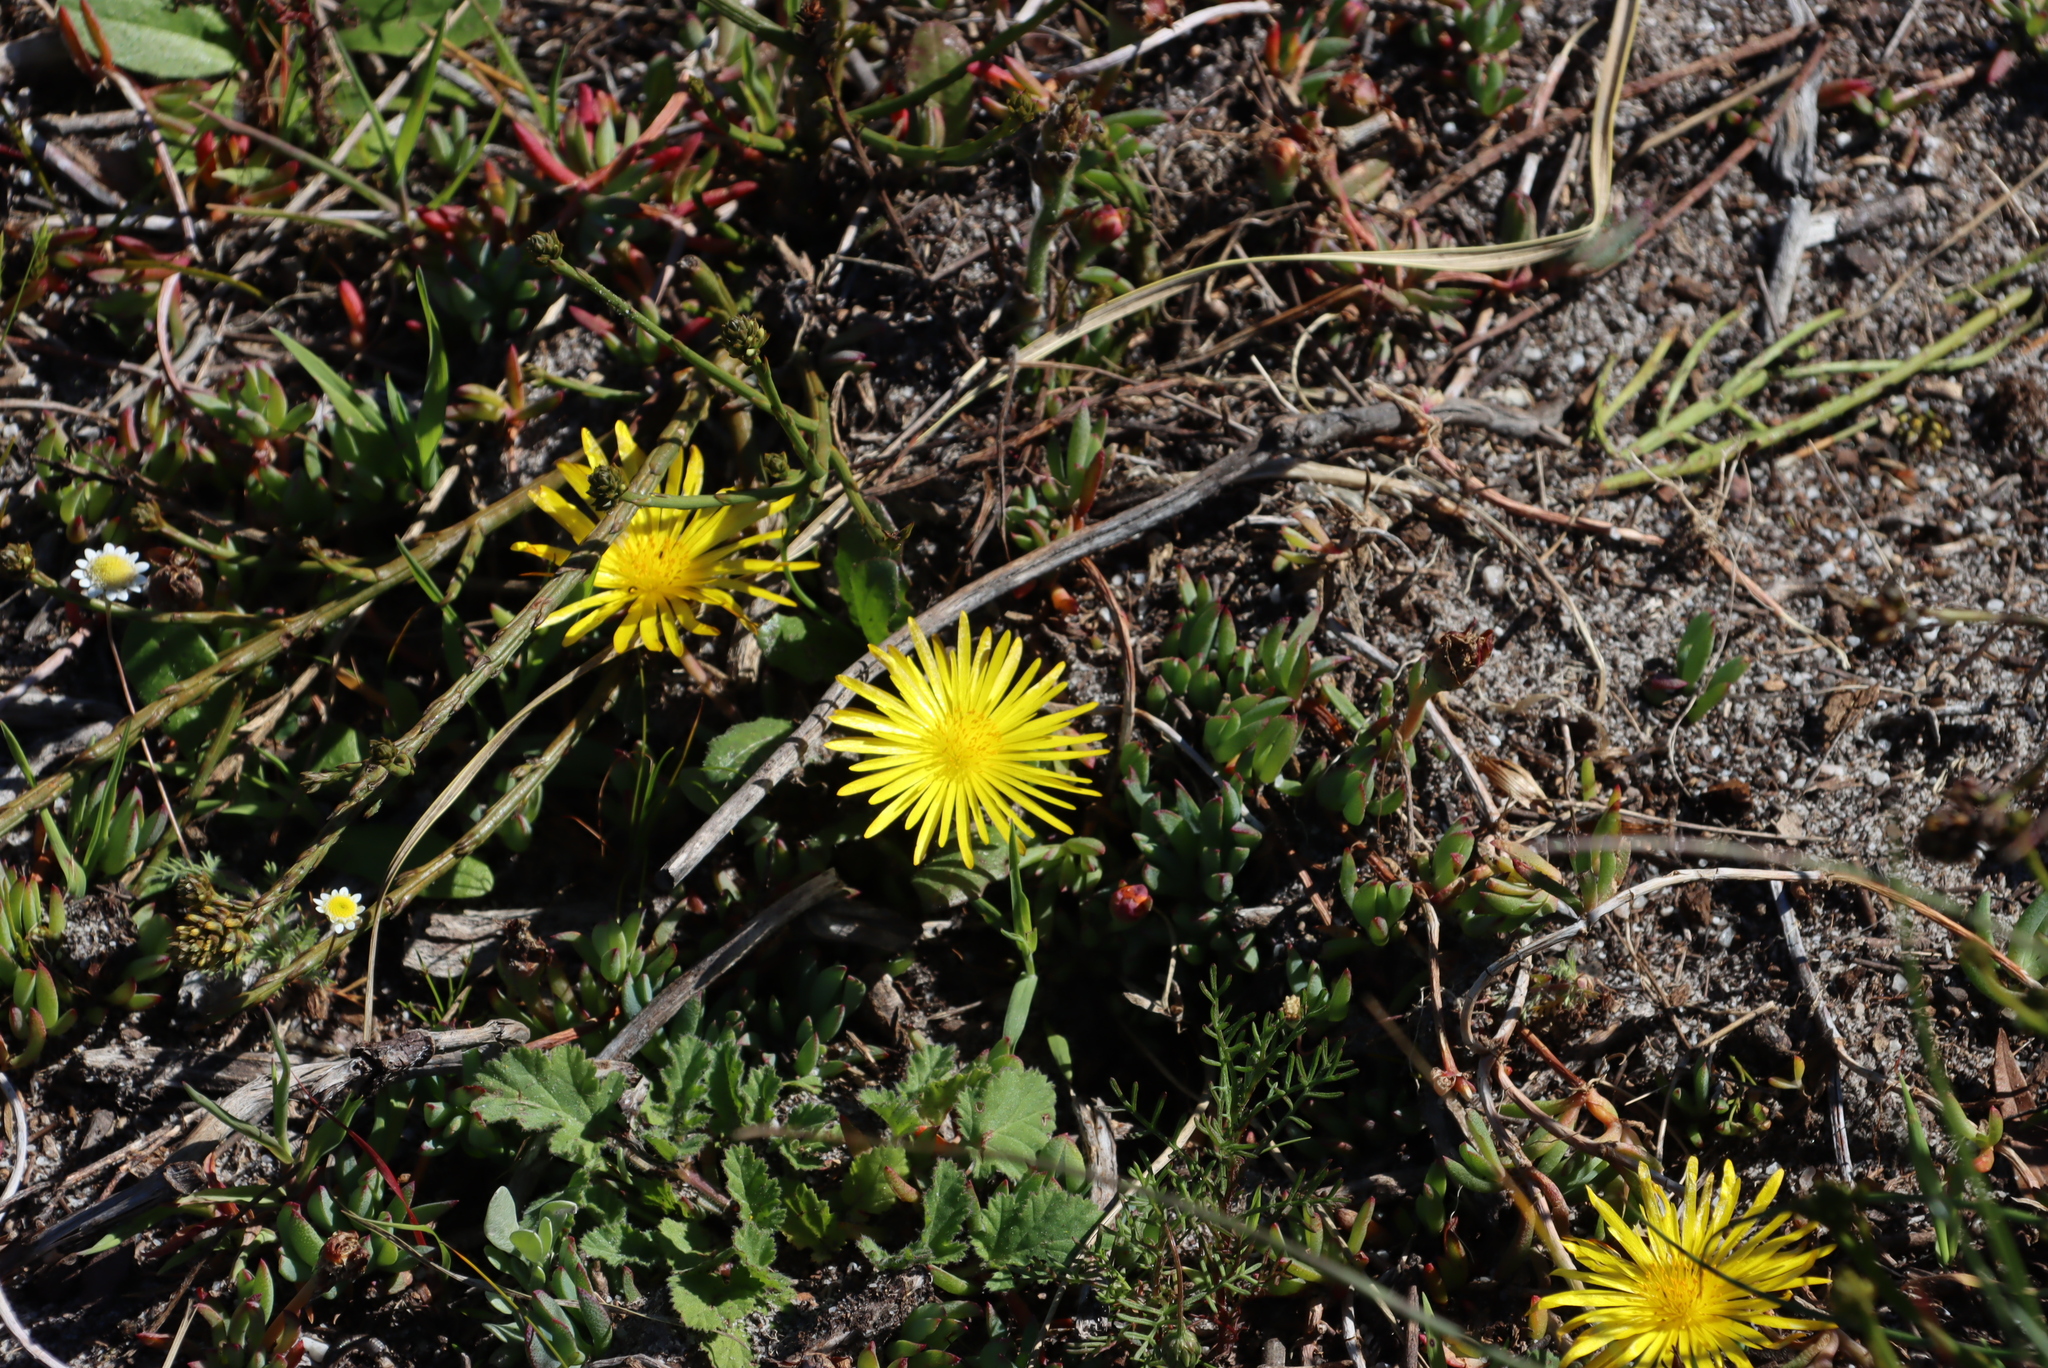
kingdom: Plantae
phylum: Tracheophyta
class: Magnoliopsida
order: Caryophyllales
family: Aizoaceae
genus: Lampranthus
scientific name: Lampranthus reptans
